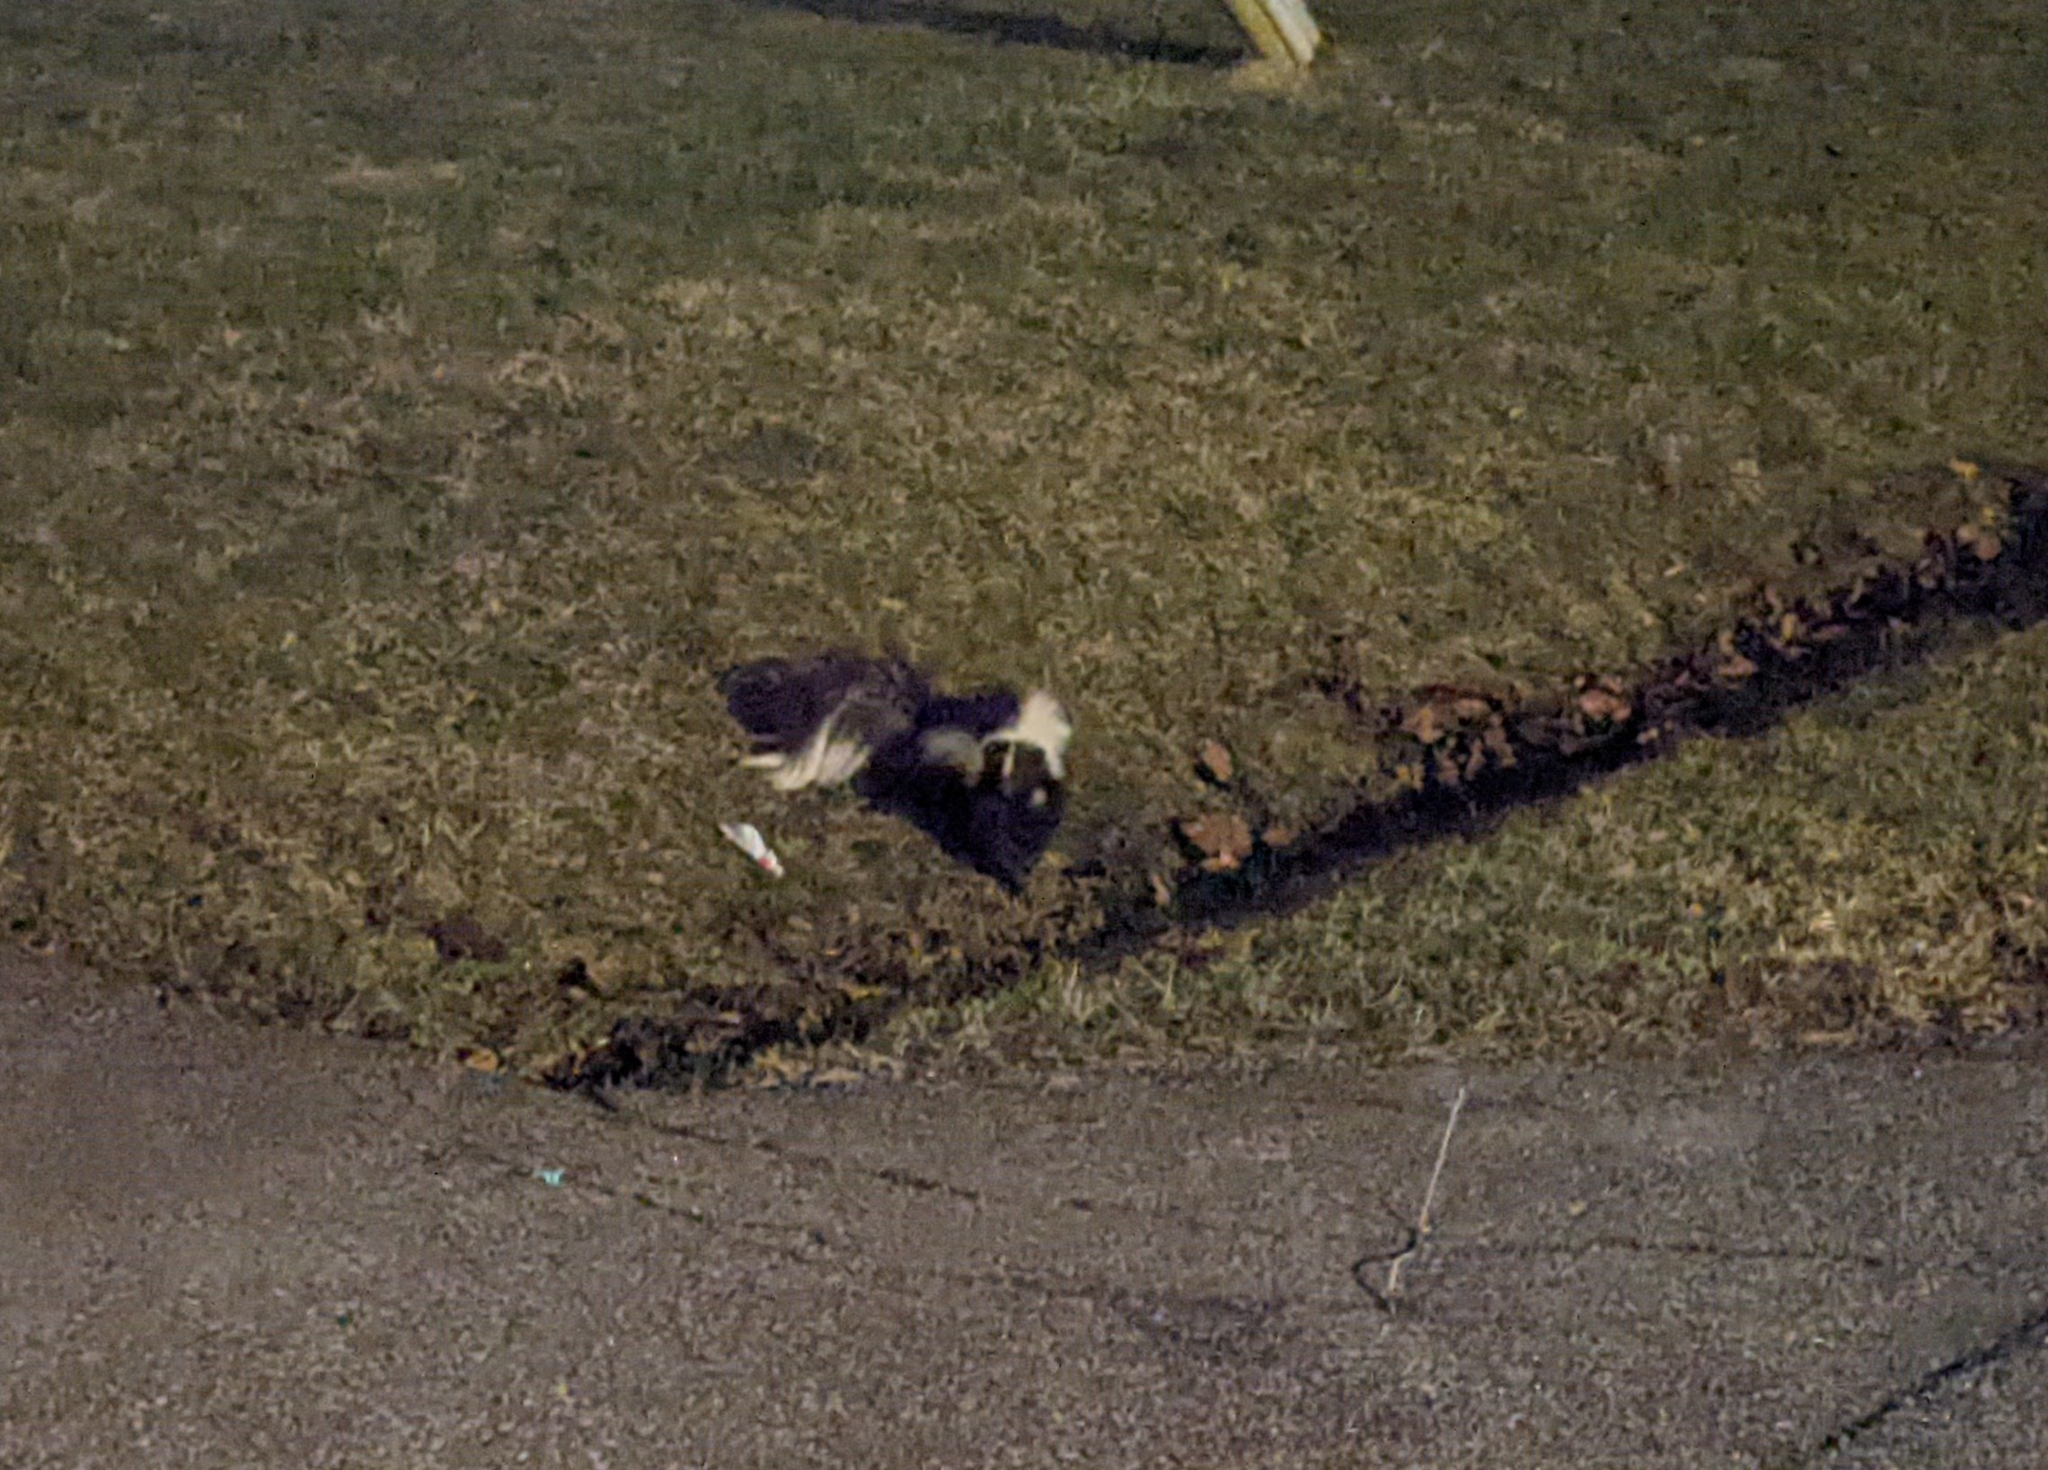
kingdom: Animalia
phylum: Chordata
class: Mammalia
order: Carnivora
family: Mephitidae
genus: Mephitis
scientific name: Mephitis mephitis
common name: Striped skunk
